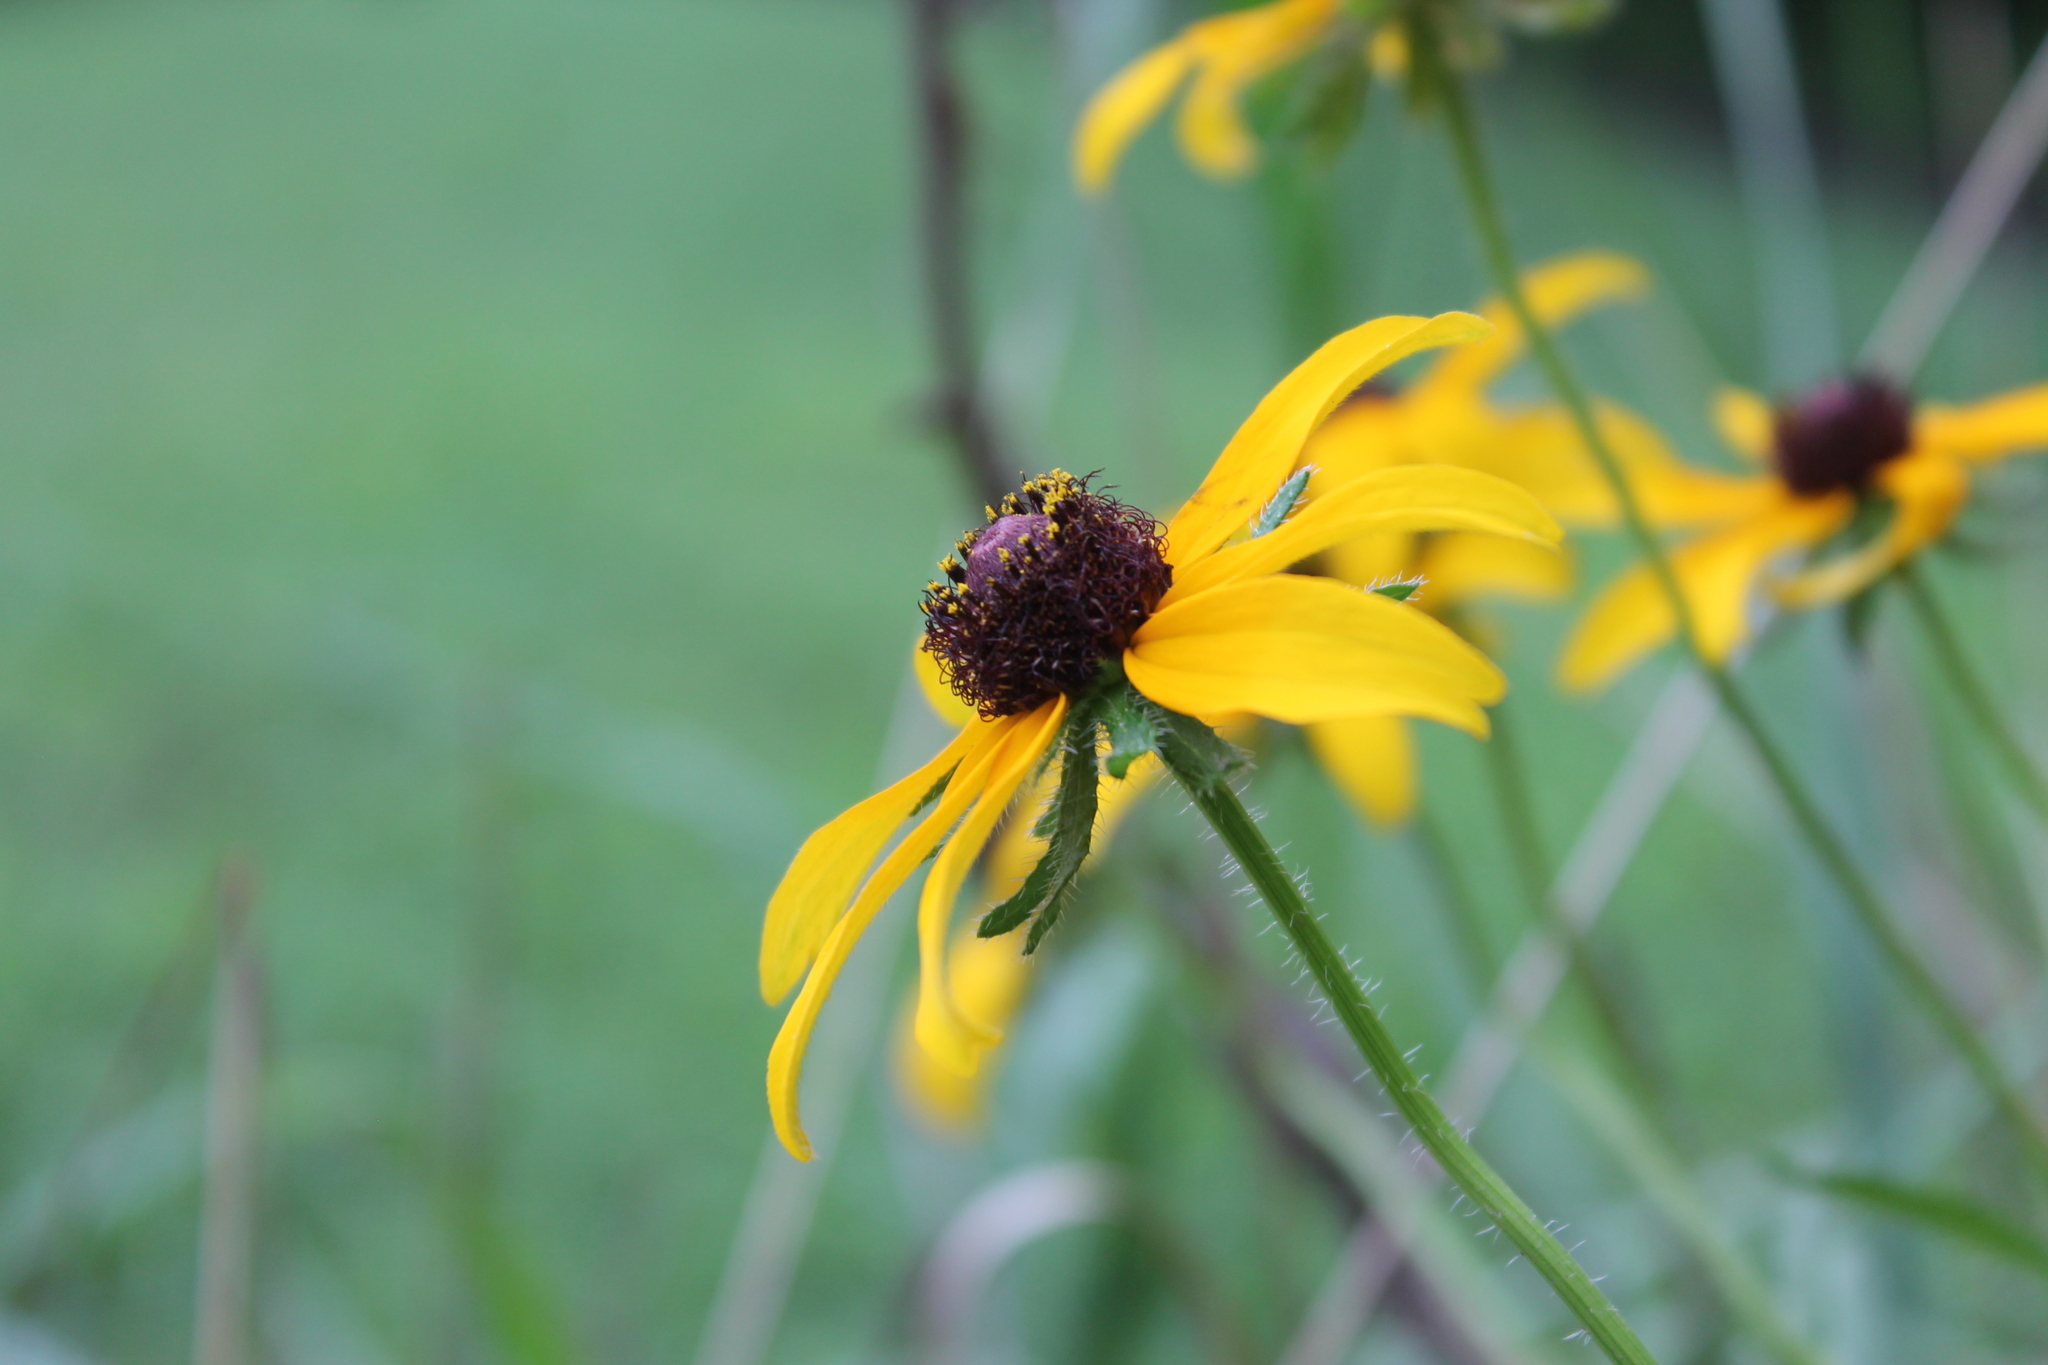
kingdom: Plantae
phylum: Tracheophyta
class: Magnoliopsida
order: Asterales
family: Asteraceae
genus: Rudbeckia
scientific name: Rudbeckia hirta
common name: Black-eyed-susan
